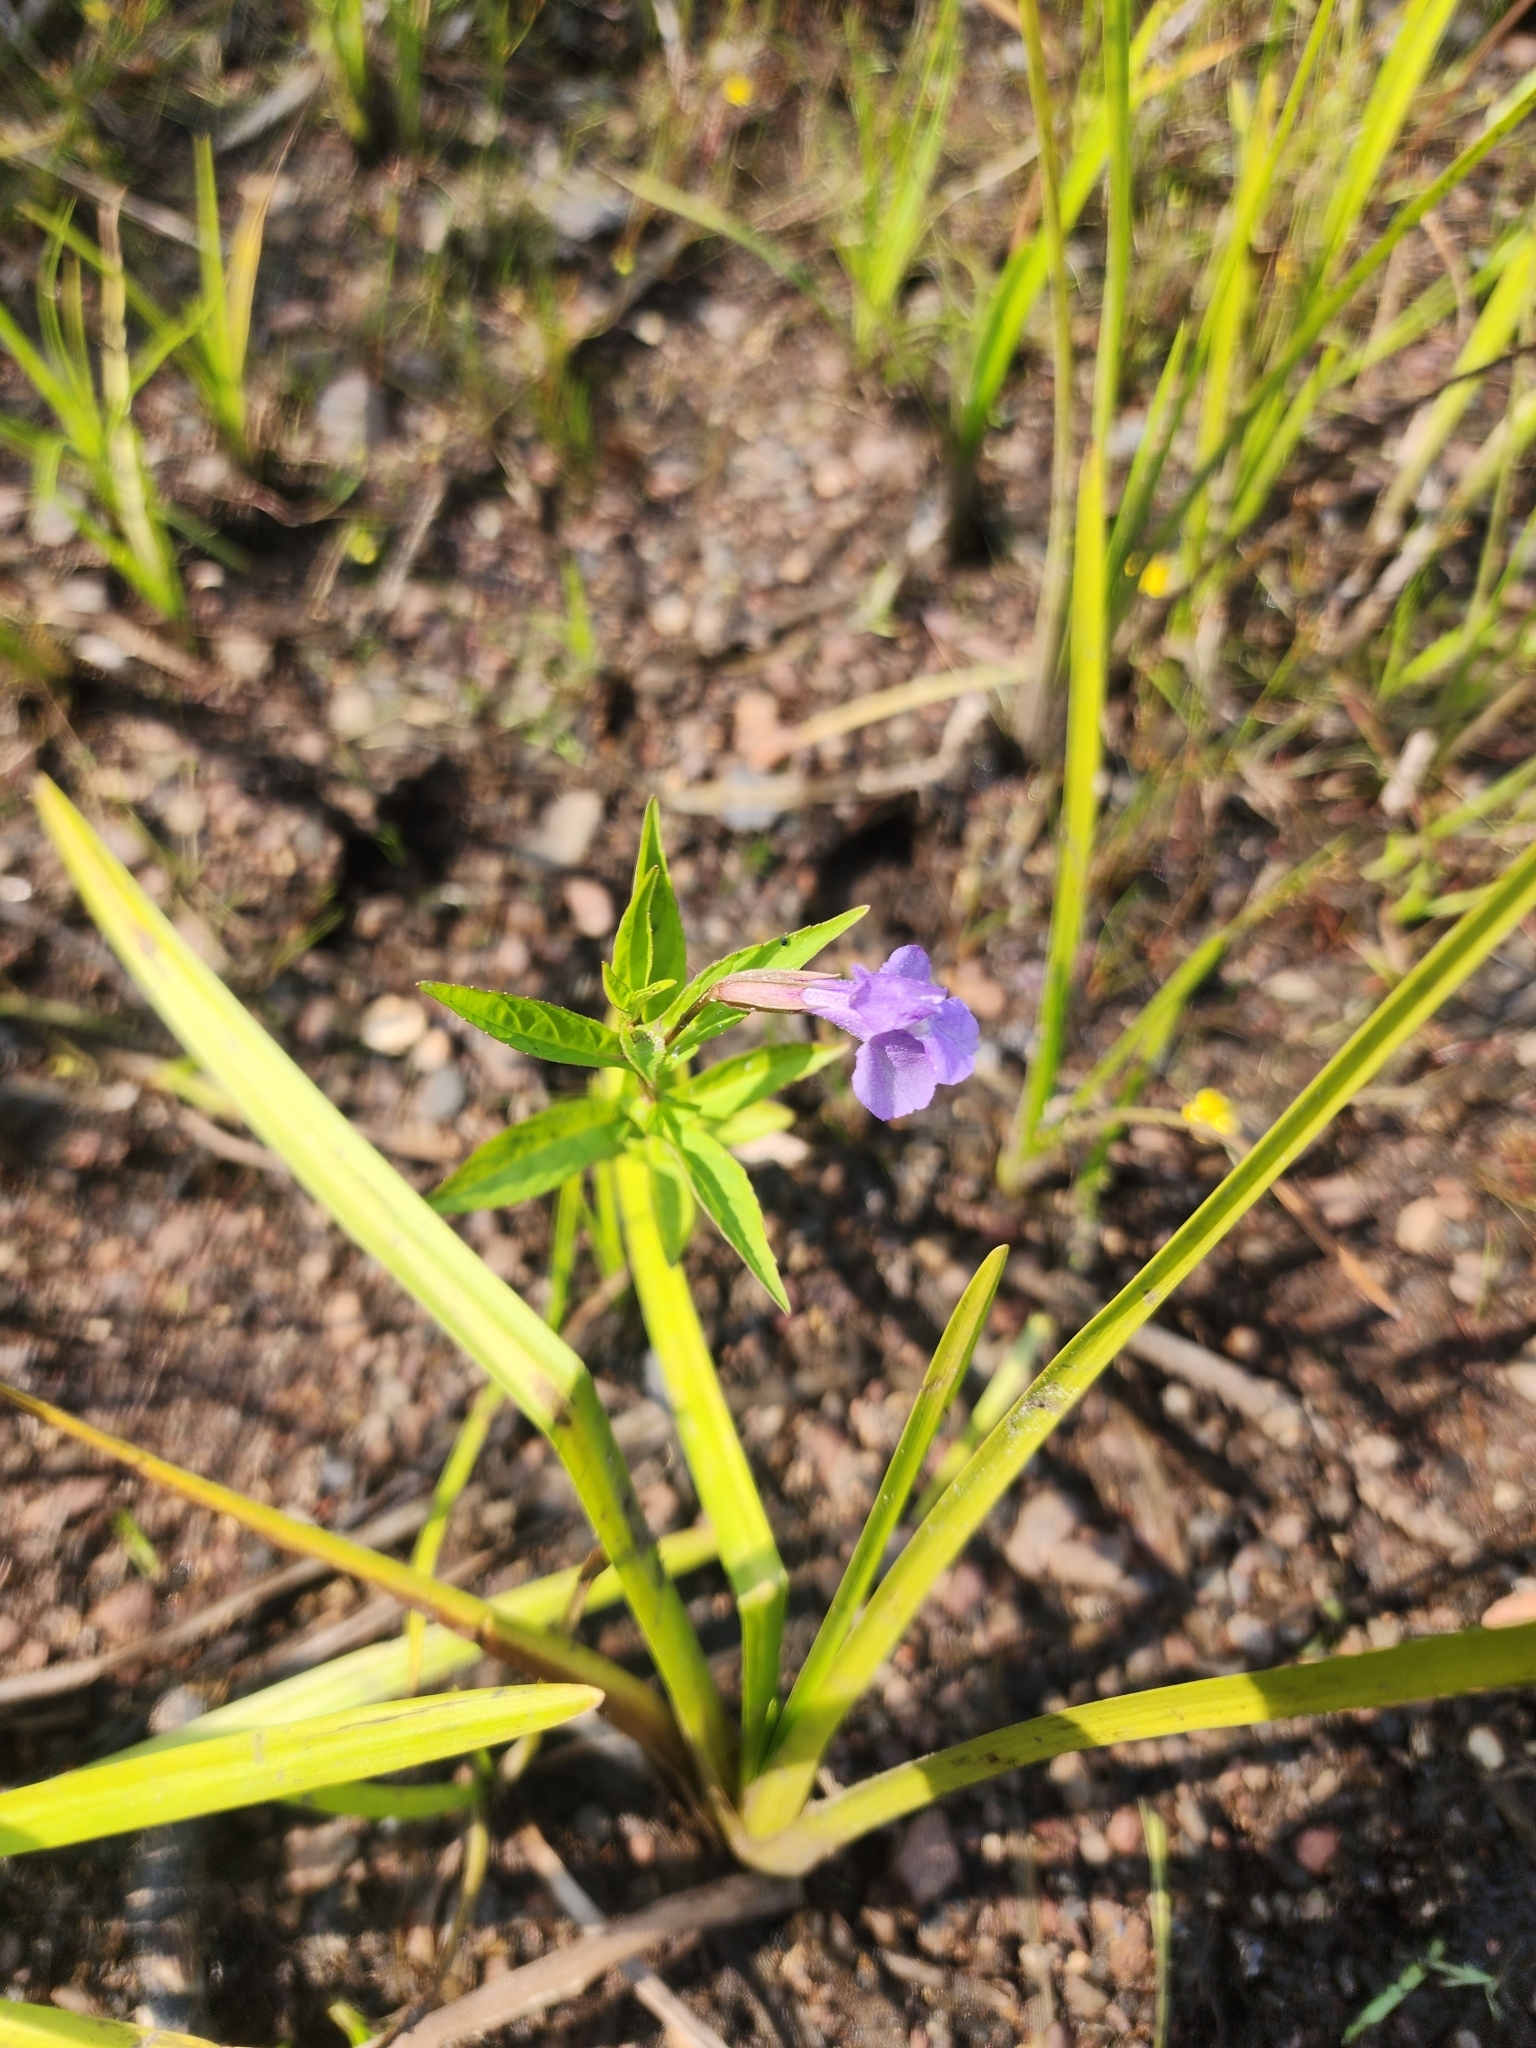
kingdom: Plantae
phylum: Tracheophyta
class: Magnoliopsida
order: Lamiales
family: Phrymaceae
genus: Mimulus
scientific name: Mimulus ringens
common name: Allegheny monkeyflower
